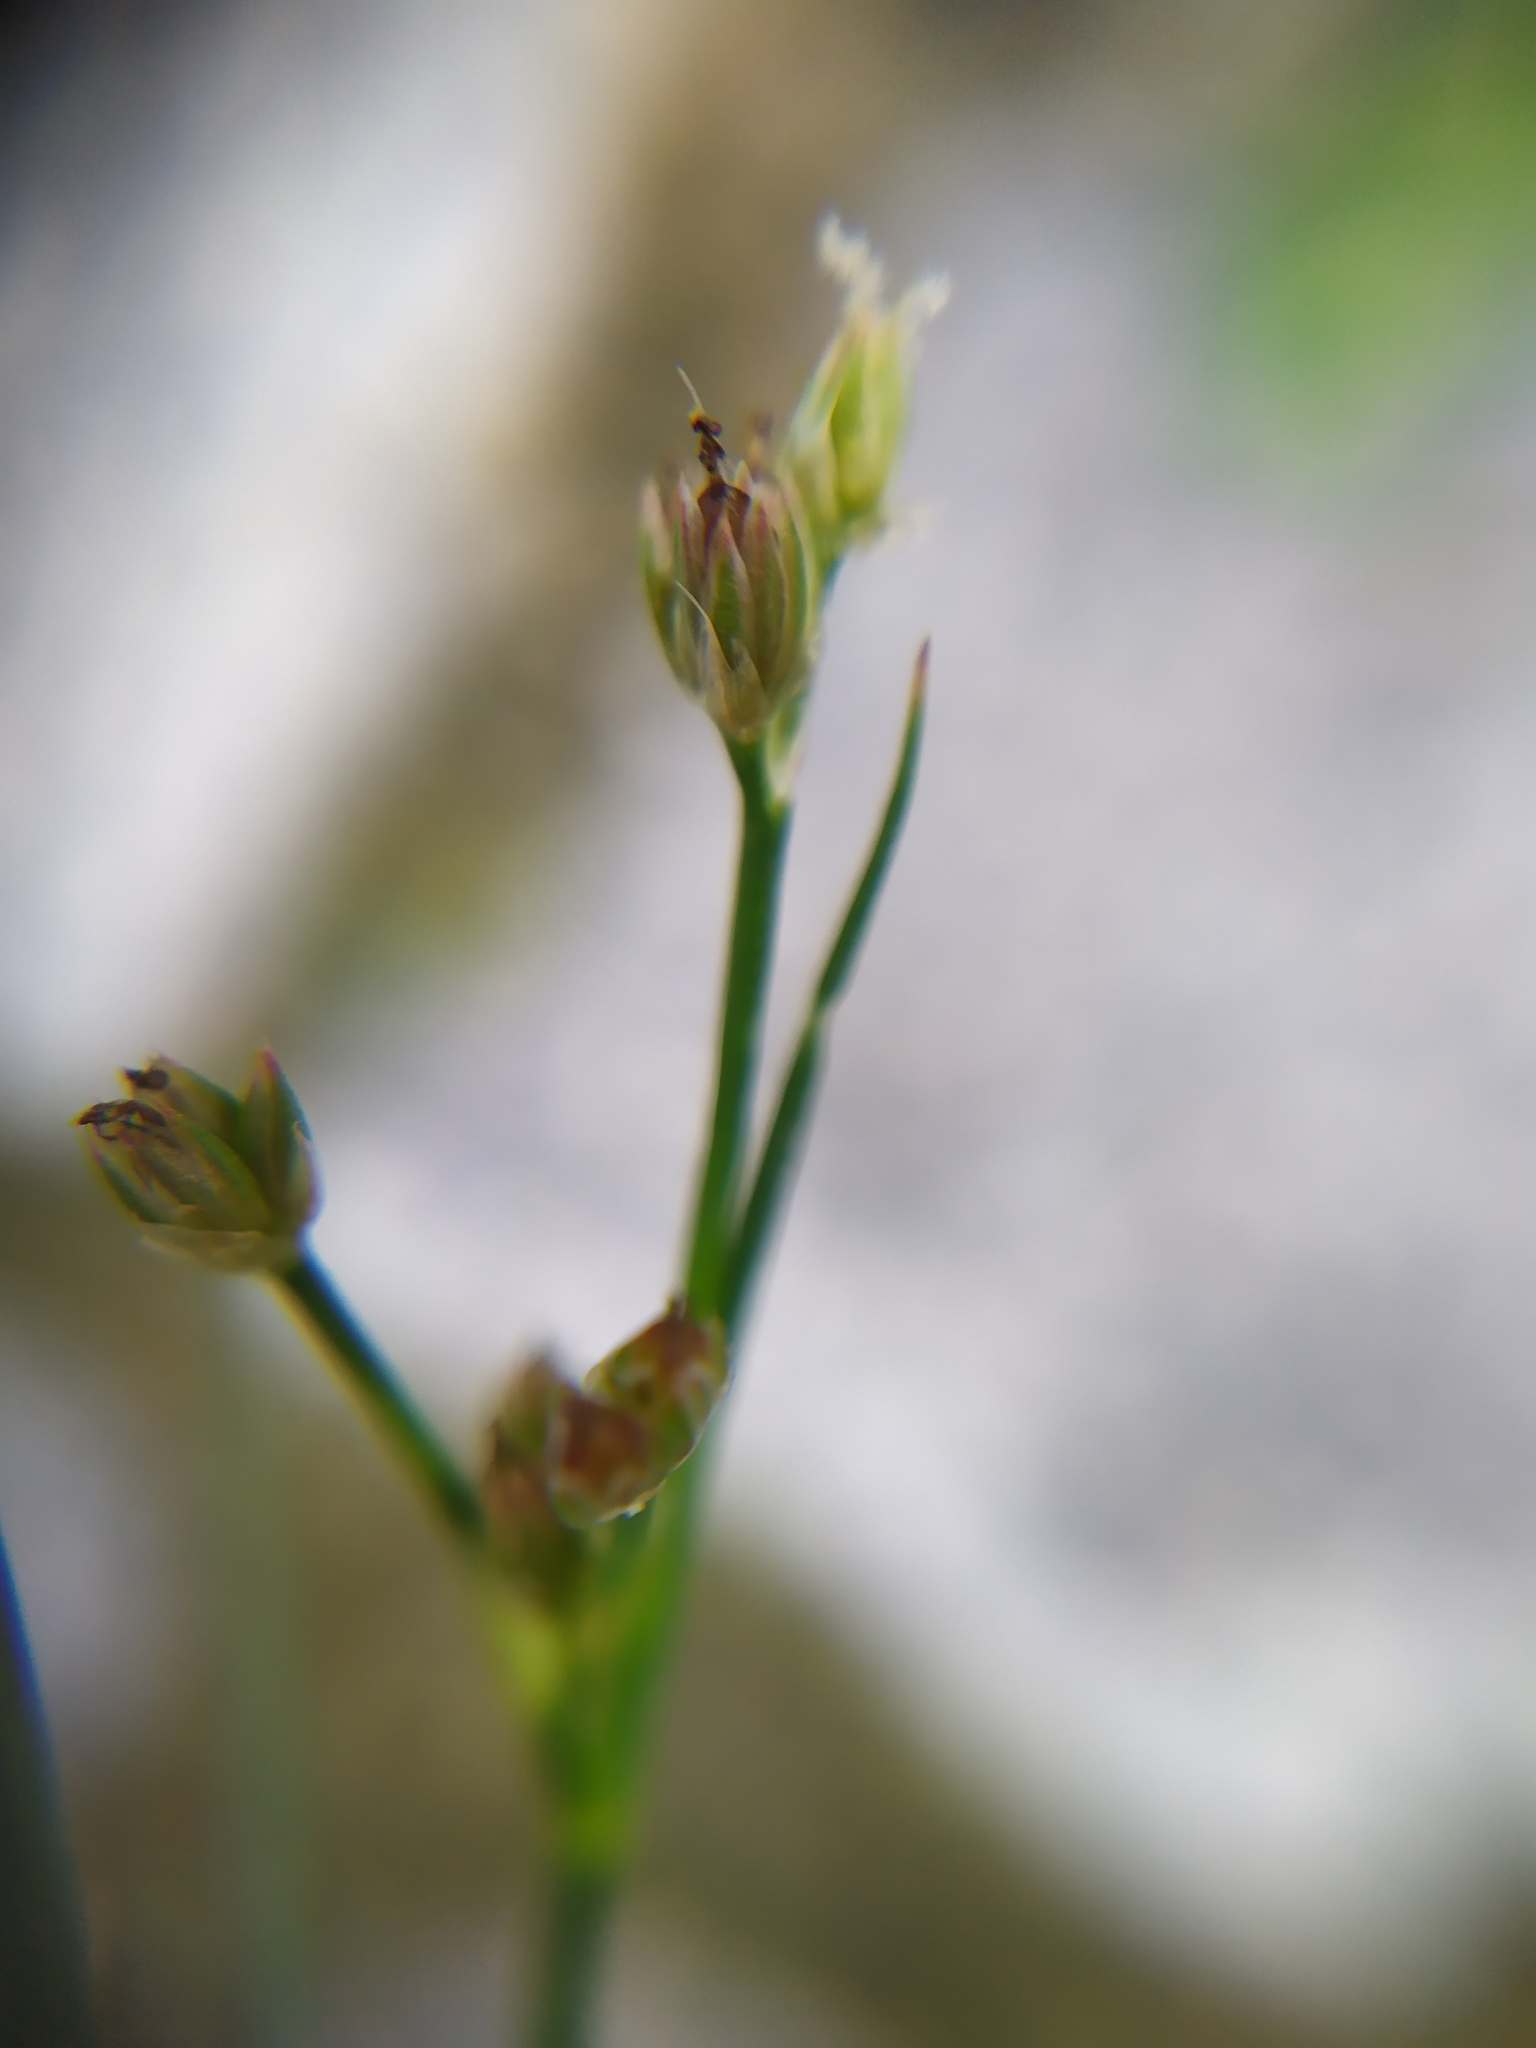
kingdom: Plantae
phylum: Tracheophyta
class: Liliopsida
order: Poales
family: Juncaceae
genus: Juncus
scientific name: Juncus articulatus
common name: Jointed rush
